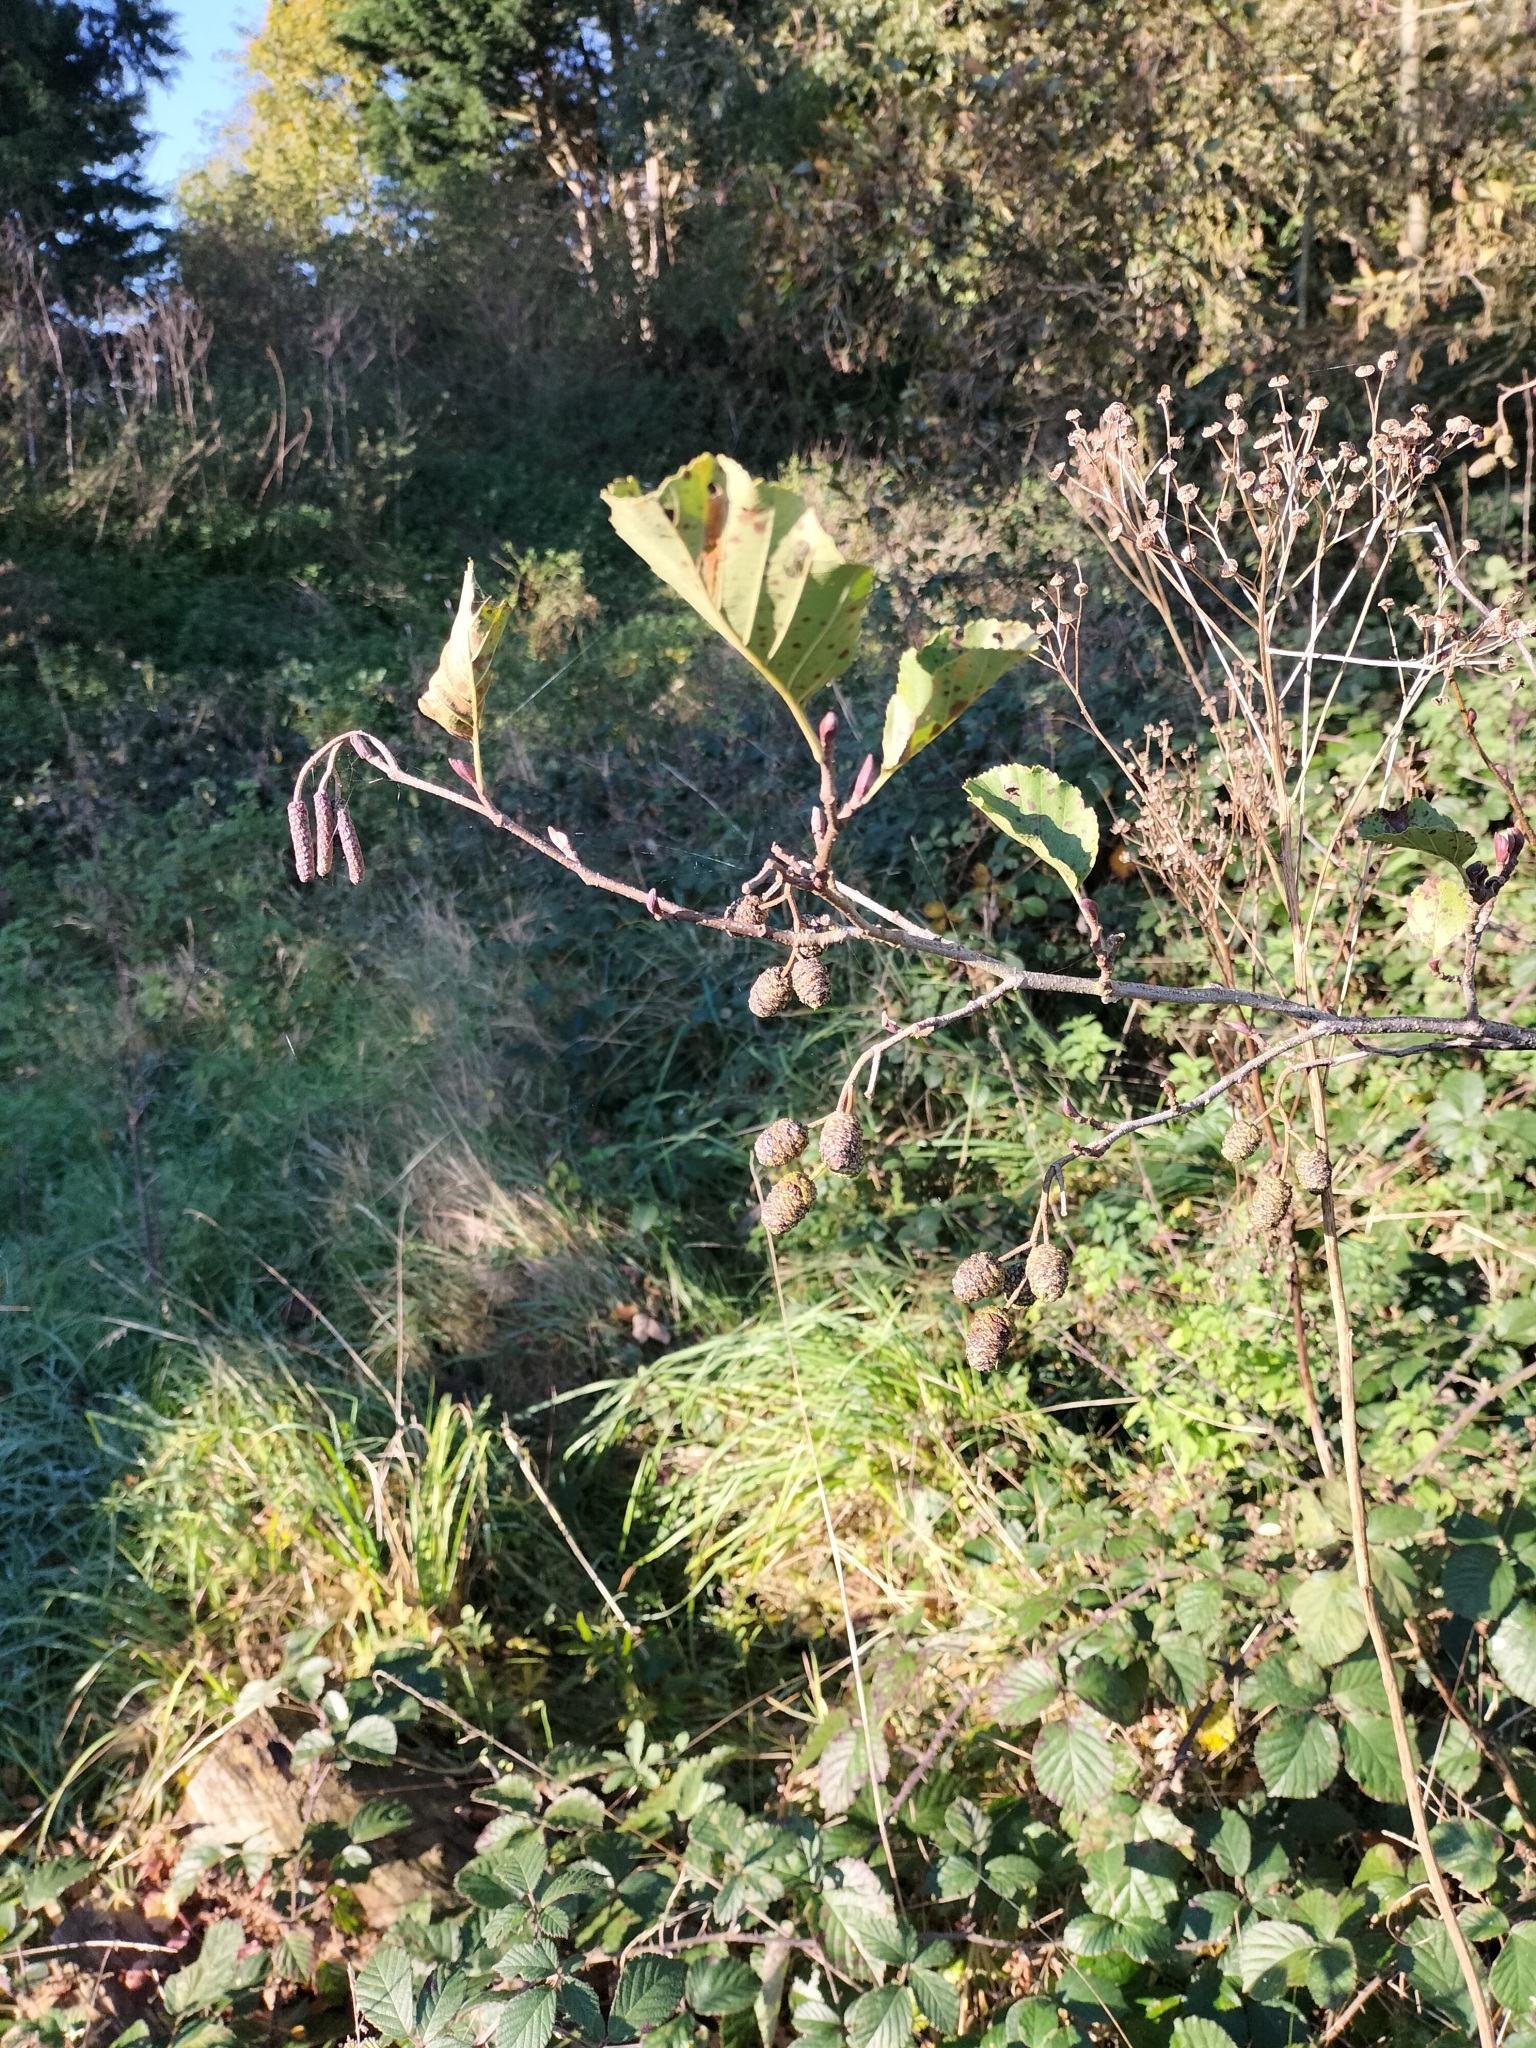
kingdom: Plantae
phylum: Tracheophyta
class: Magnoliopsida
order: Fagales
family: Betulaceae
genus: Alnus
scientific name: Alnus glutinosa
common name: Black alder
